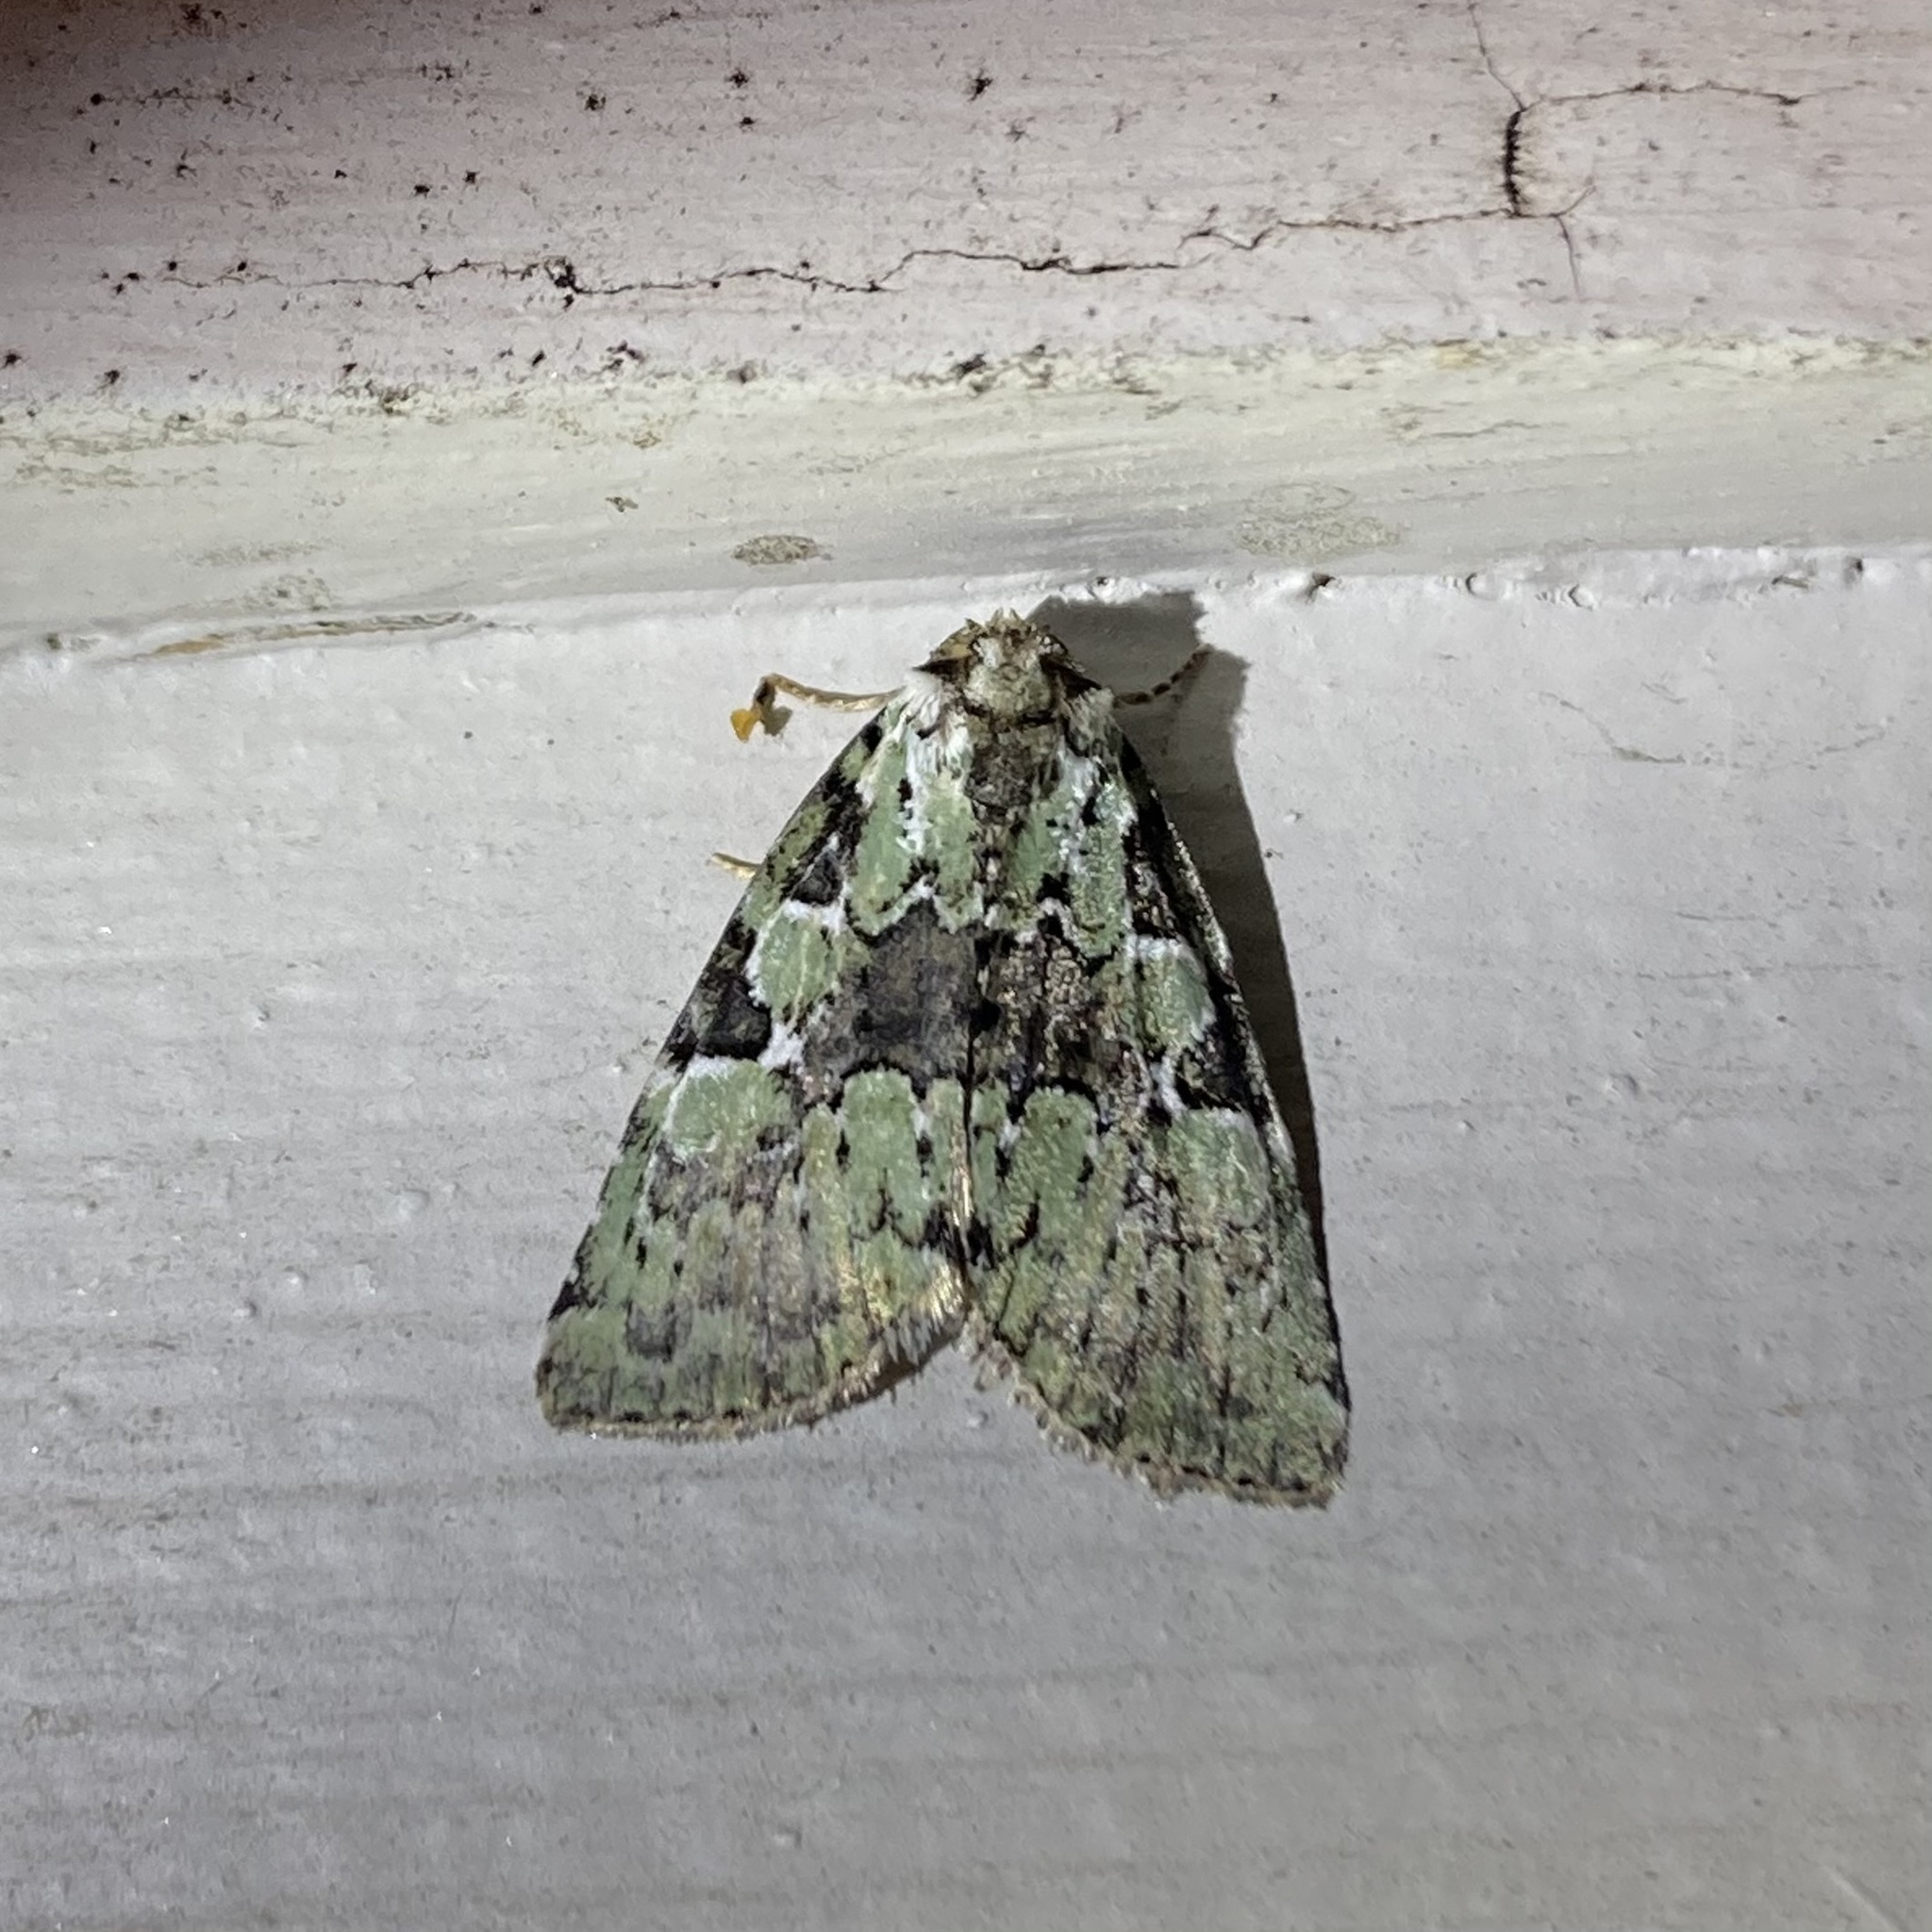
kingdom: Animalia
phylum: Arthropoda
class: Insecta
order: Lepidoptera
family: Noctuidae
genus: Leuconycta
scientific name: Leuconycta lepidula
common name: Marbled-green leuconycta moth
